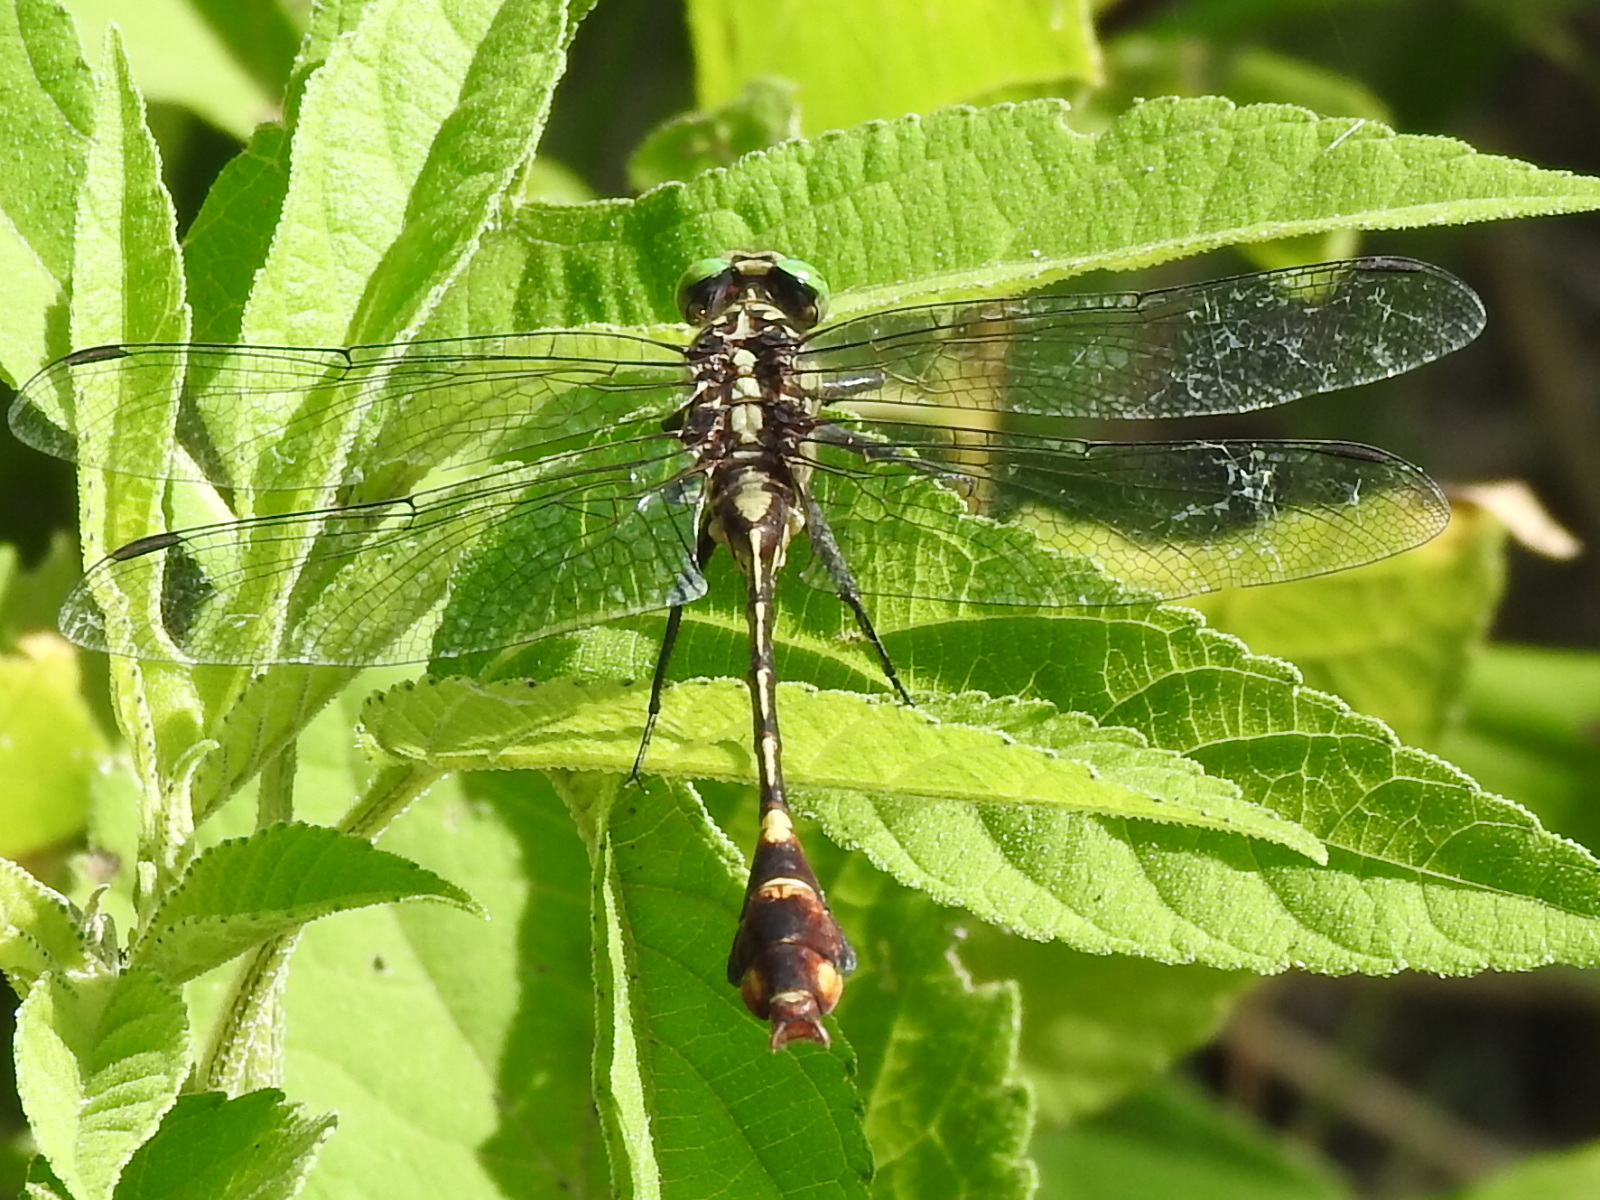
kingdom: Animalia
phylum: Arthropoda
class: Insecta
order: Odonata
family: Gomphidae
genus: Gomphurus
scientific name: Gomphurus vastus
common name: Cobra clubtail
